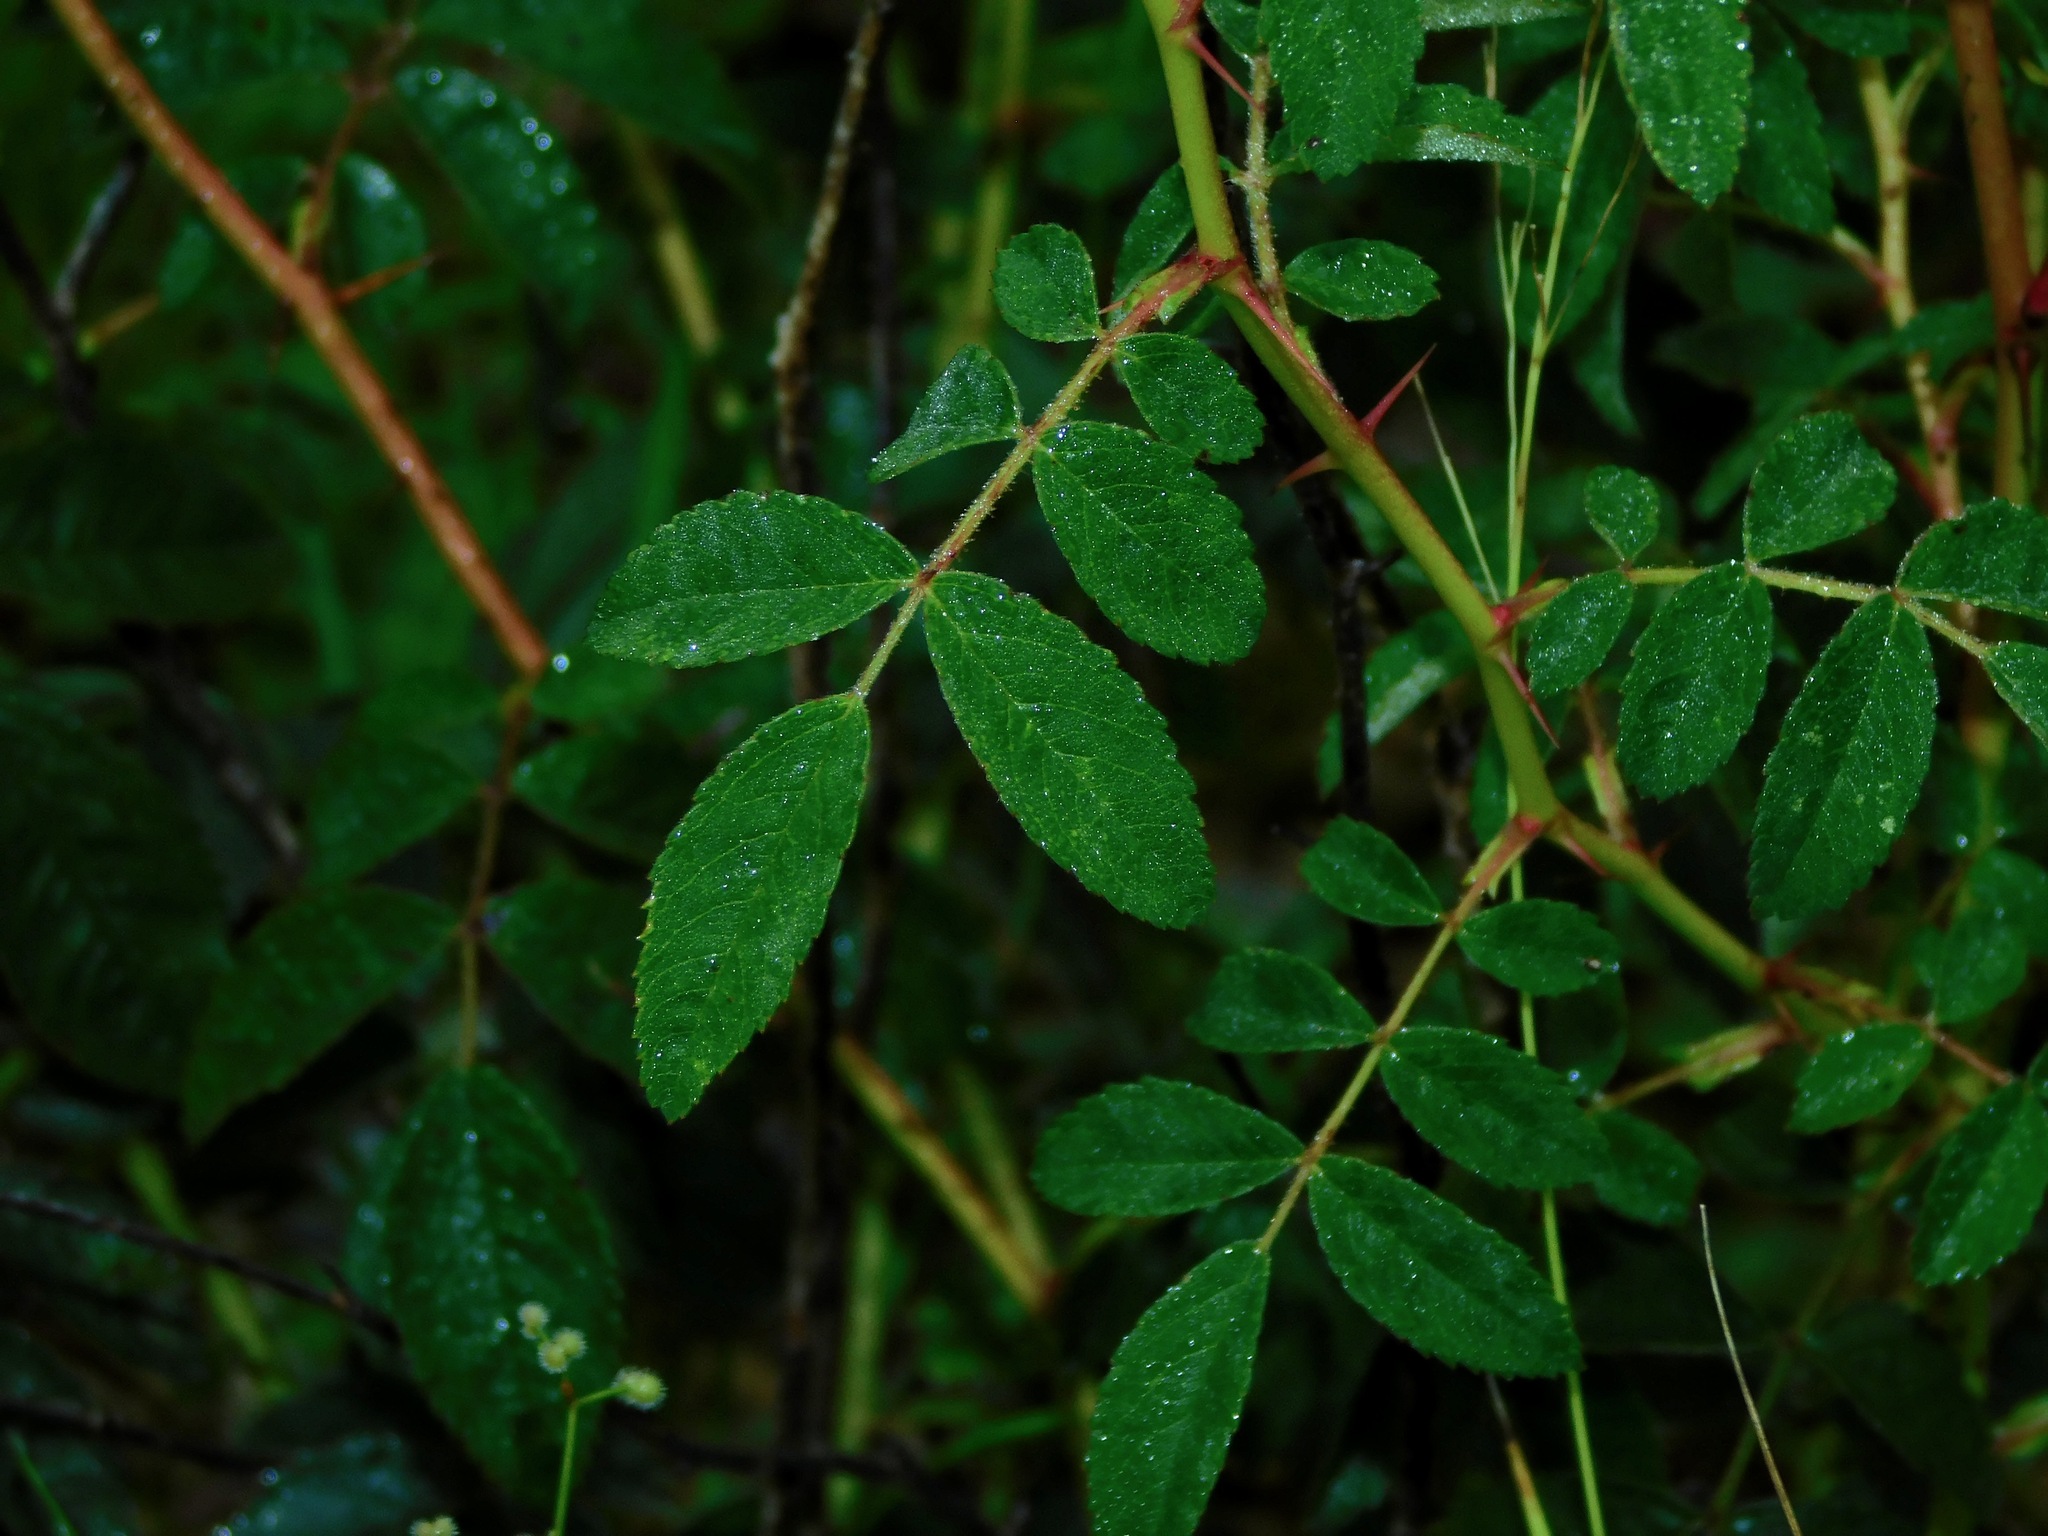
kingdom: Plantae
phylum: Tracheophyta
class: Magnoliopsida
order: Rosales
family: Rosaceae
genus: Rosa
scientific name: Rosa carolina
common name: Pasture rose
